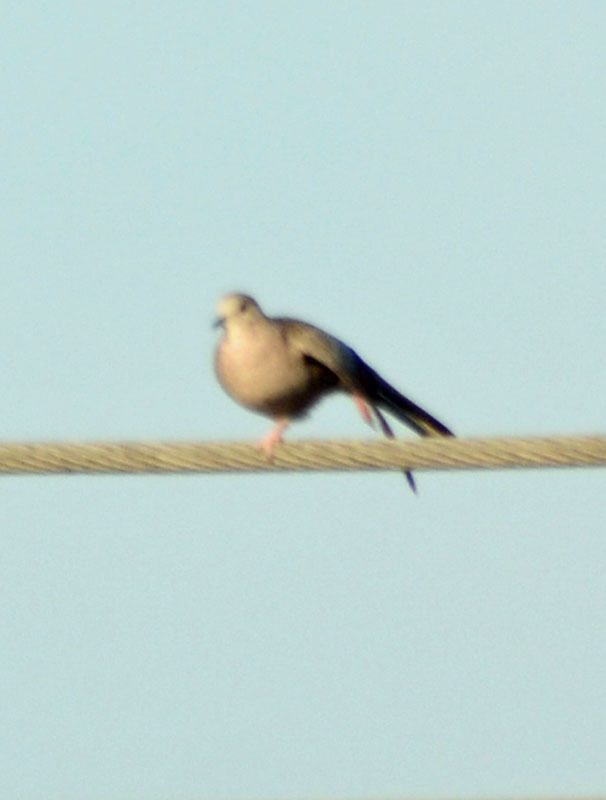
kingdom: Animalia
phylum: Chordata
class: Aves
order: Columbiformes
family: Columbidae
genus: Columbina
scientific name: Columbina inca
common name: Inca dove
